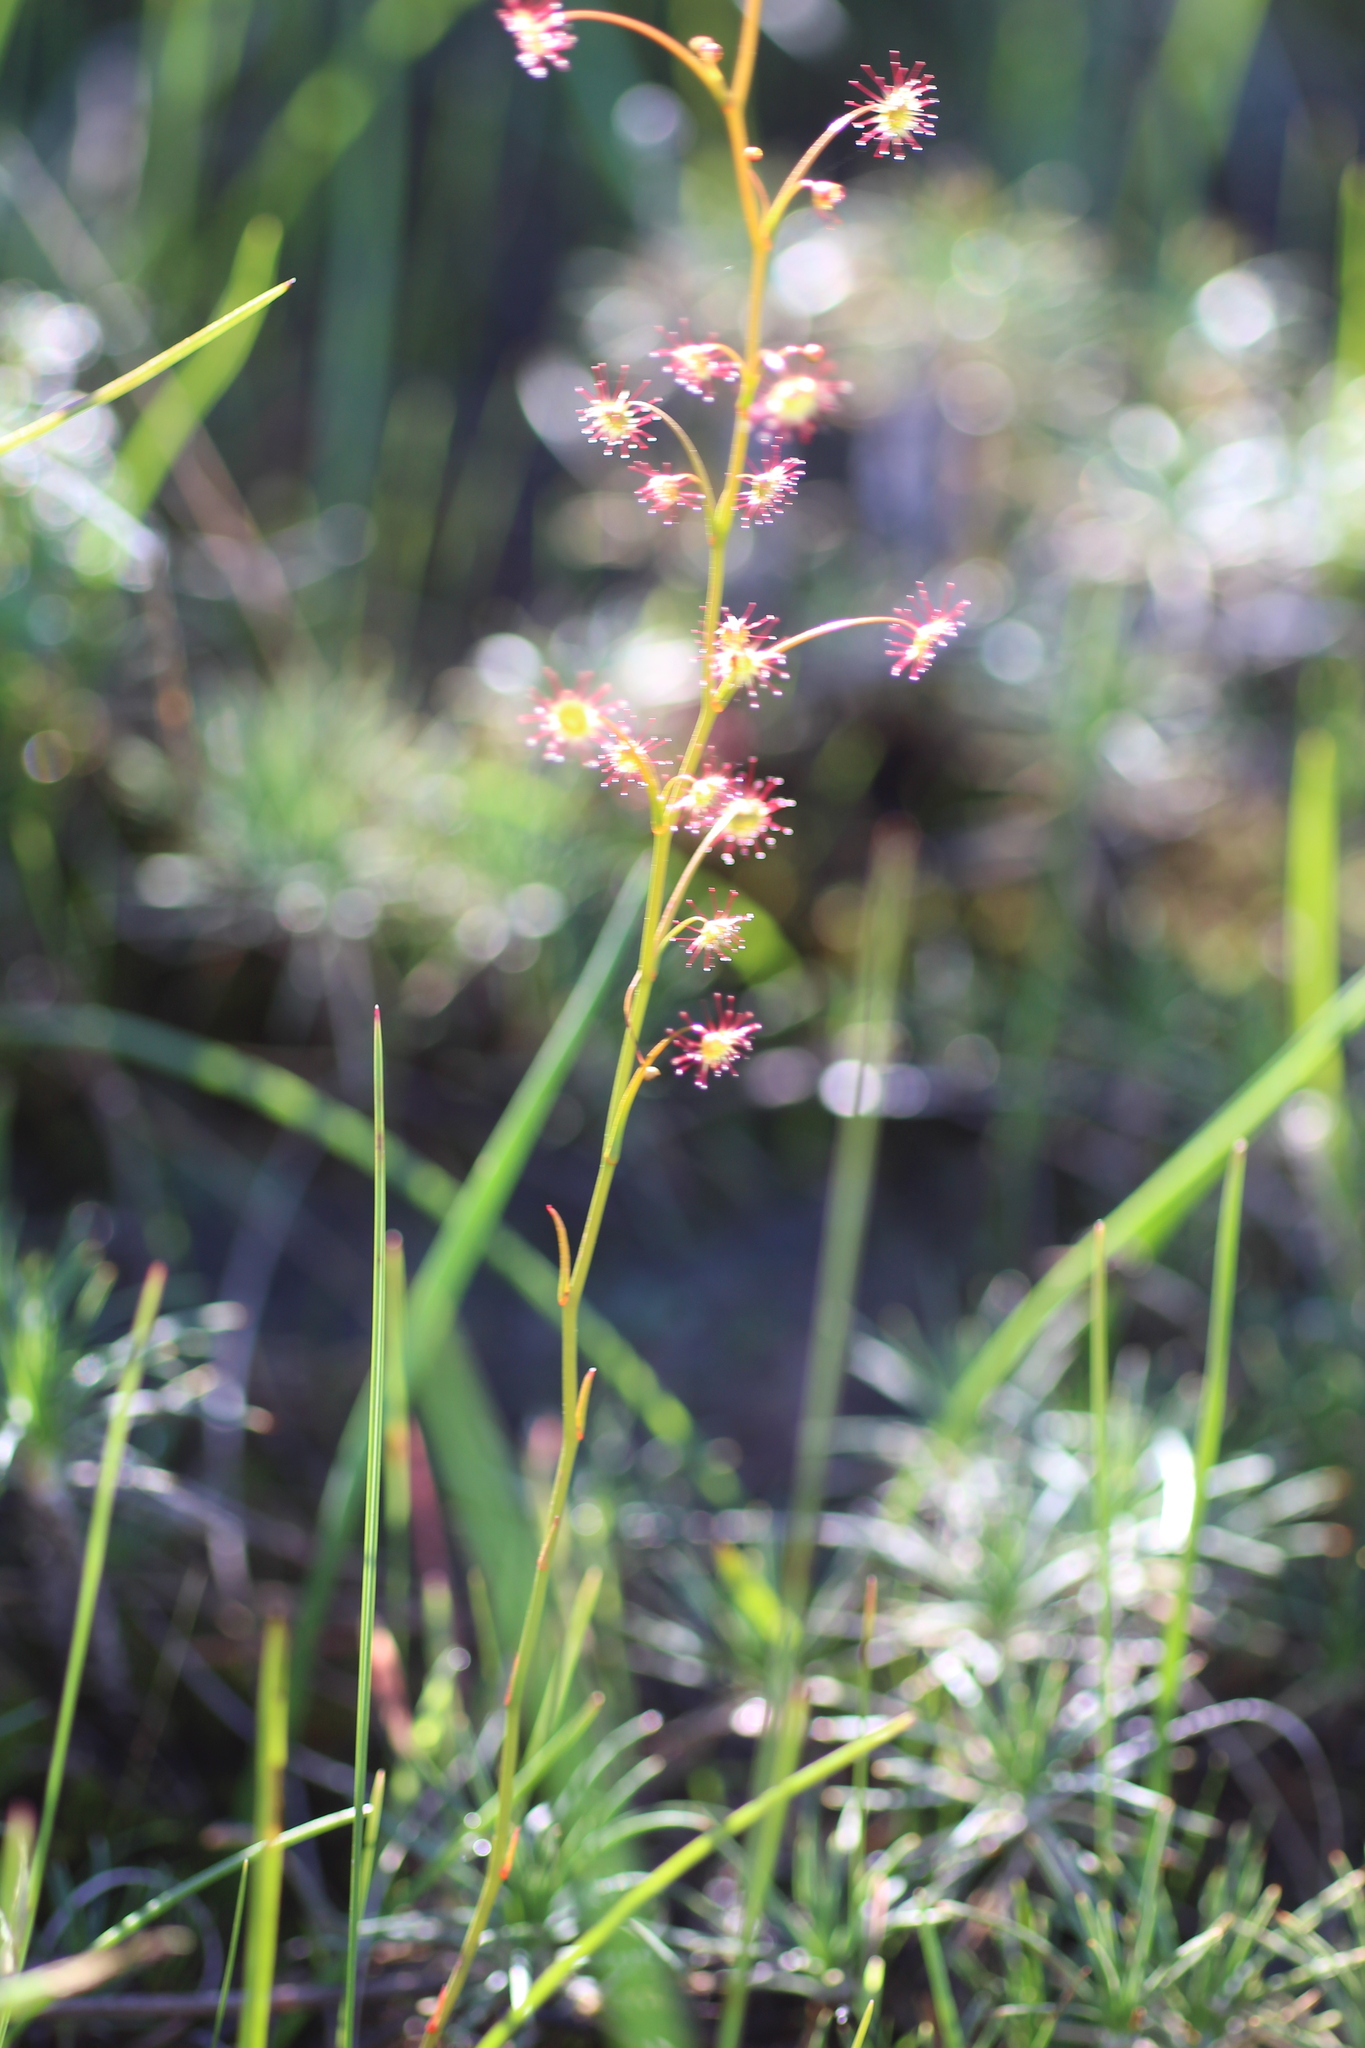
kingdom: Plantae
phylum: Tracheophyta
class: Magnoliopsida
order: Caryophyllales
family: Droseraceae
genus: Drosera
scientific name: Drosera
